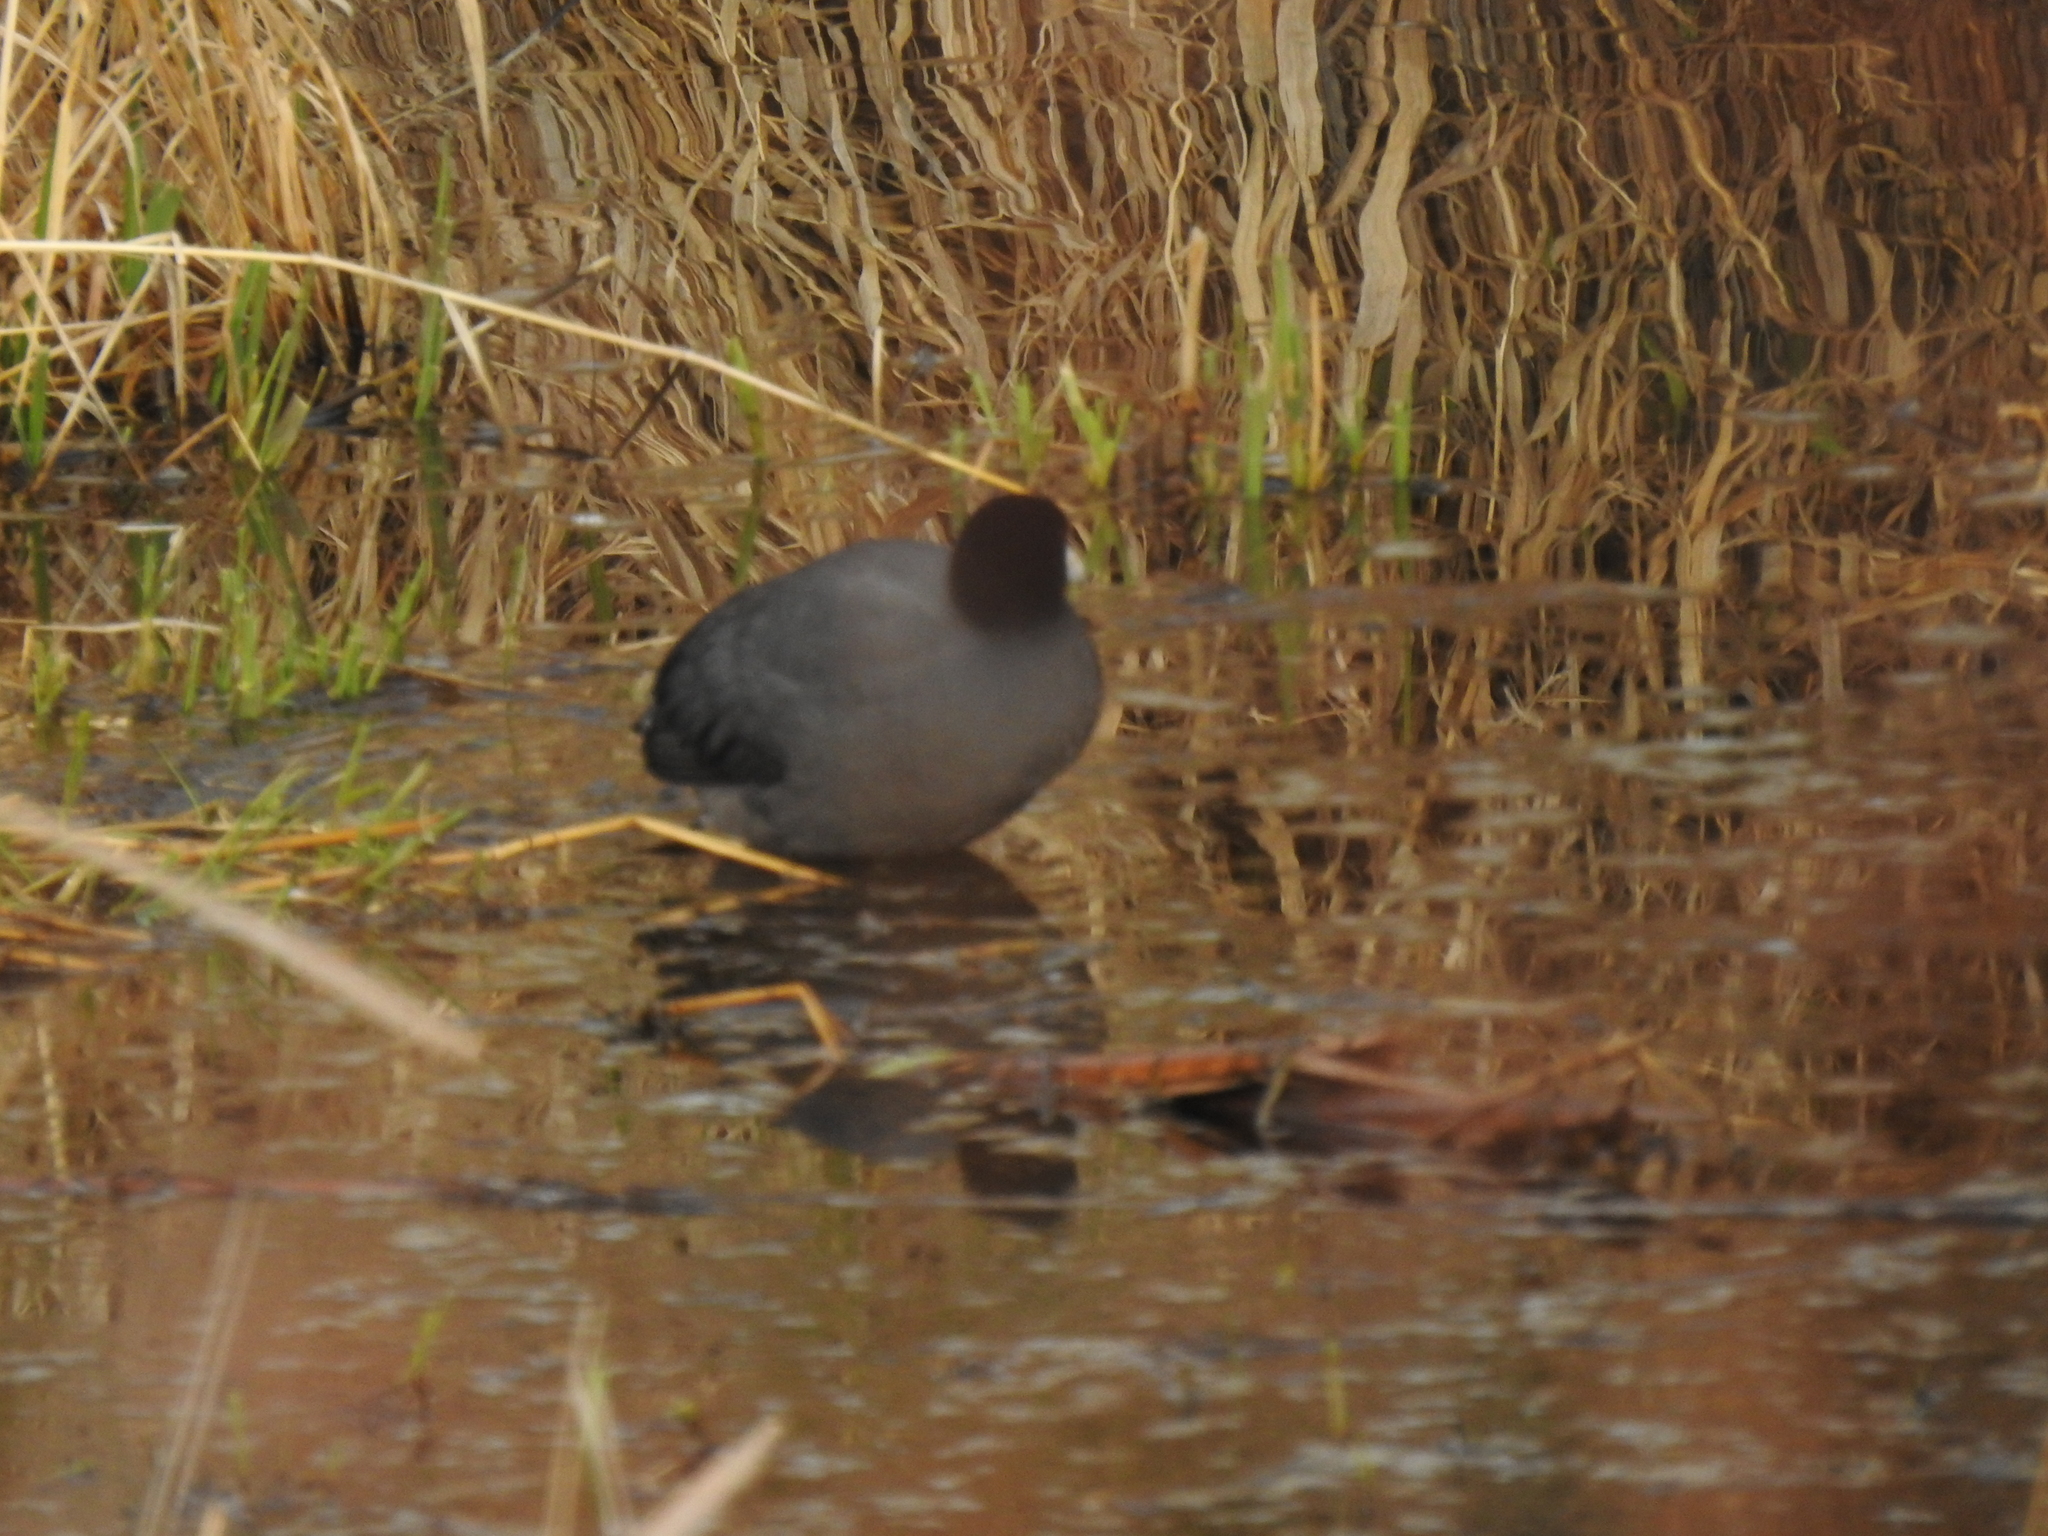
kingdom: Animalia
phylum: Chordata
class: Aves
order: Gruiformes
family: Rallidae
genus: Fulica
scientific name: Fulica americana
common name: American coot
